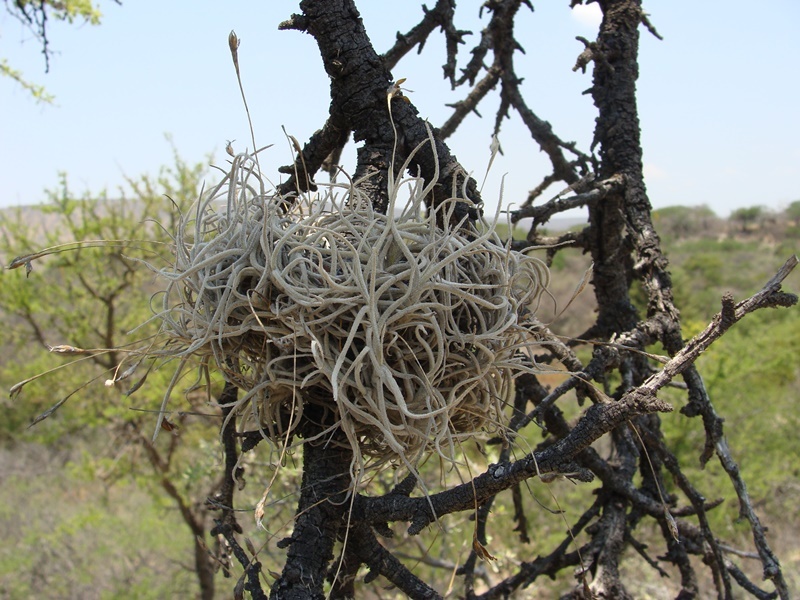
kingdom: Plantae
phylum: Tracheophyta
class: Liliopsida
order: Poales
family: Bromeliaceae
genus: Tillandsia
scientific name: Tillandsia recurvata
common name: Small ballmoss
